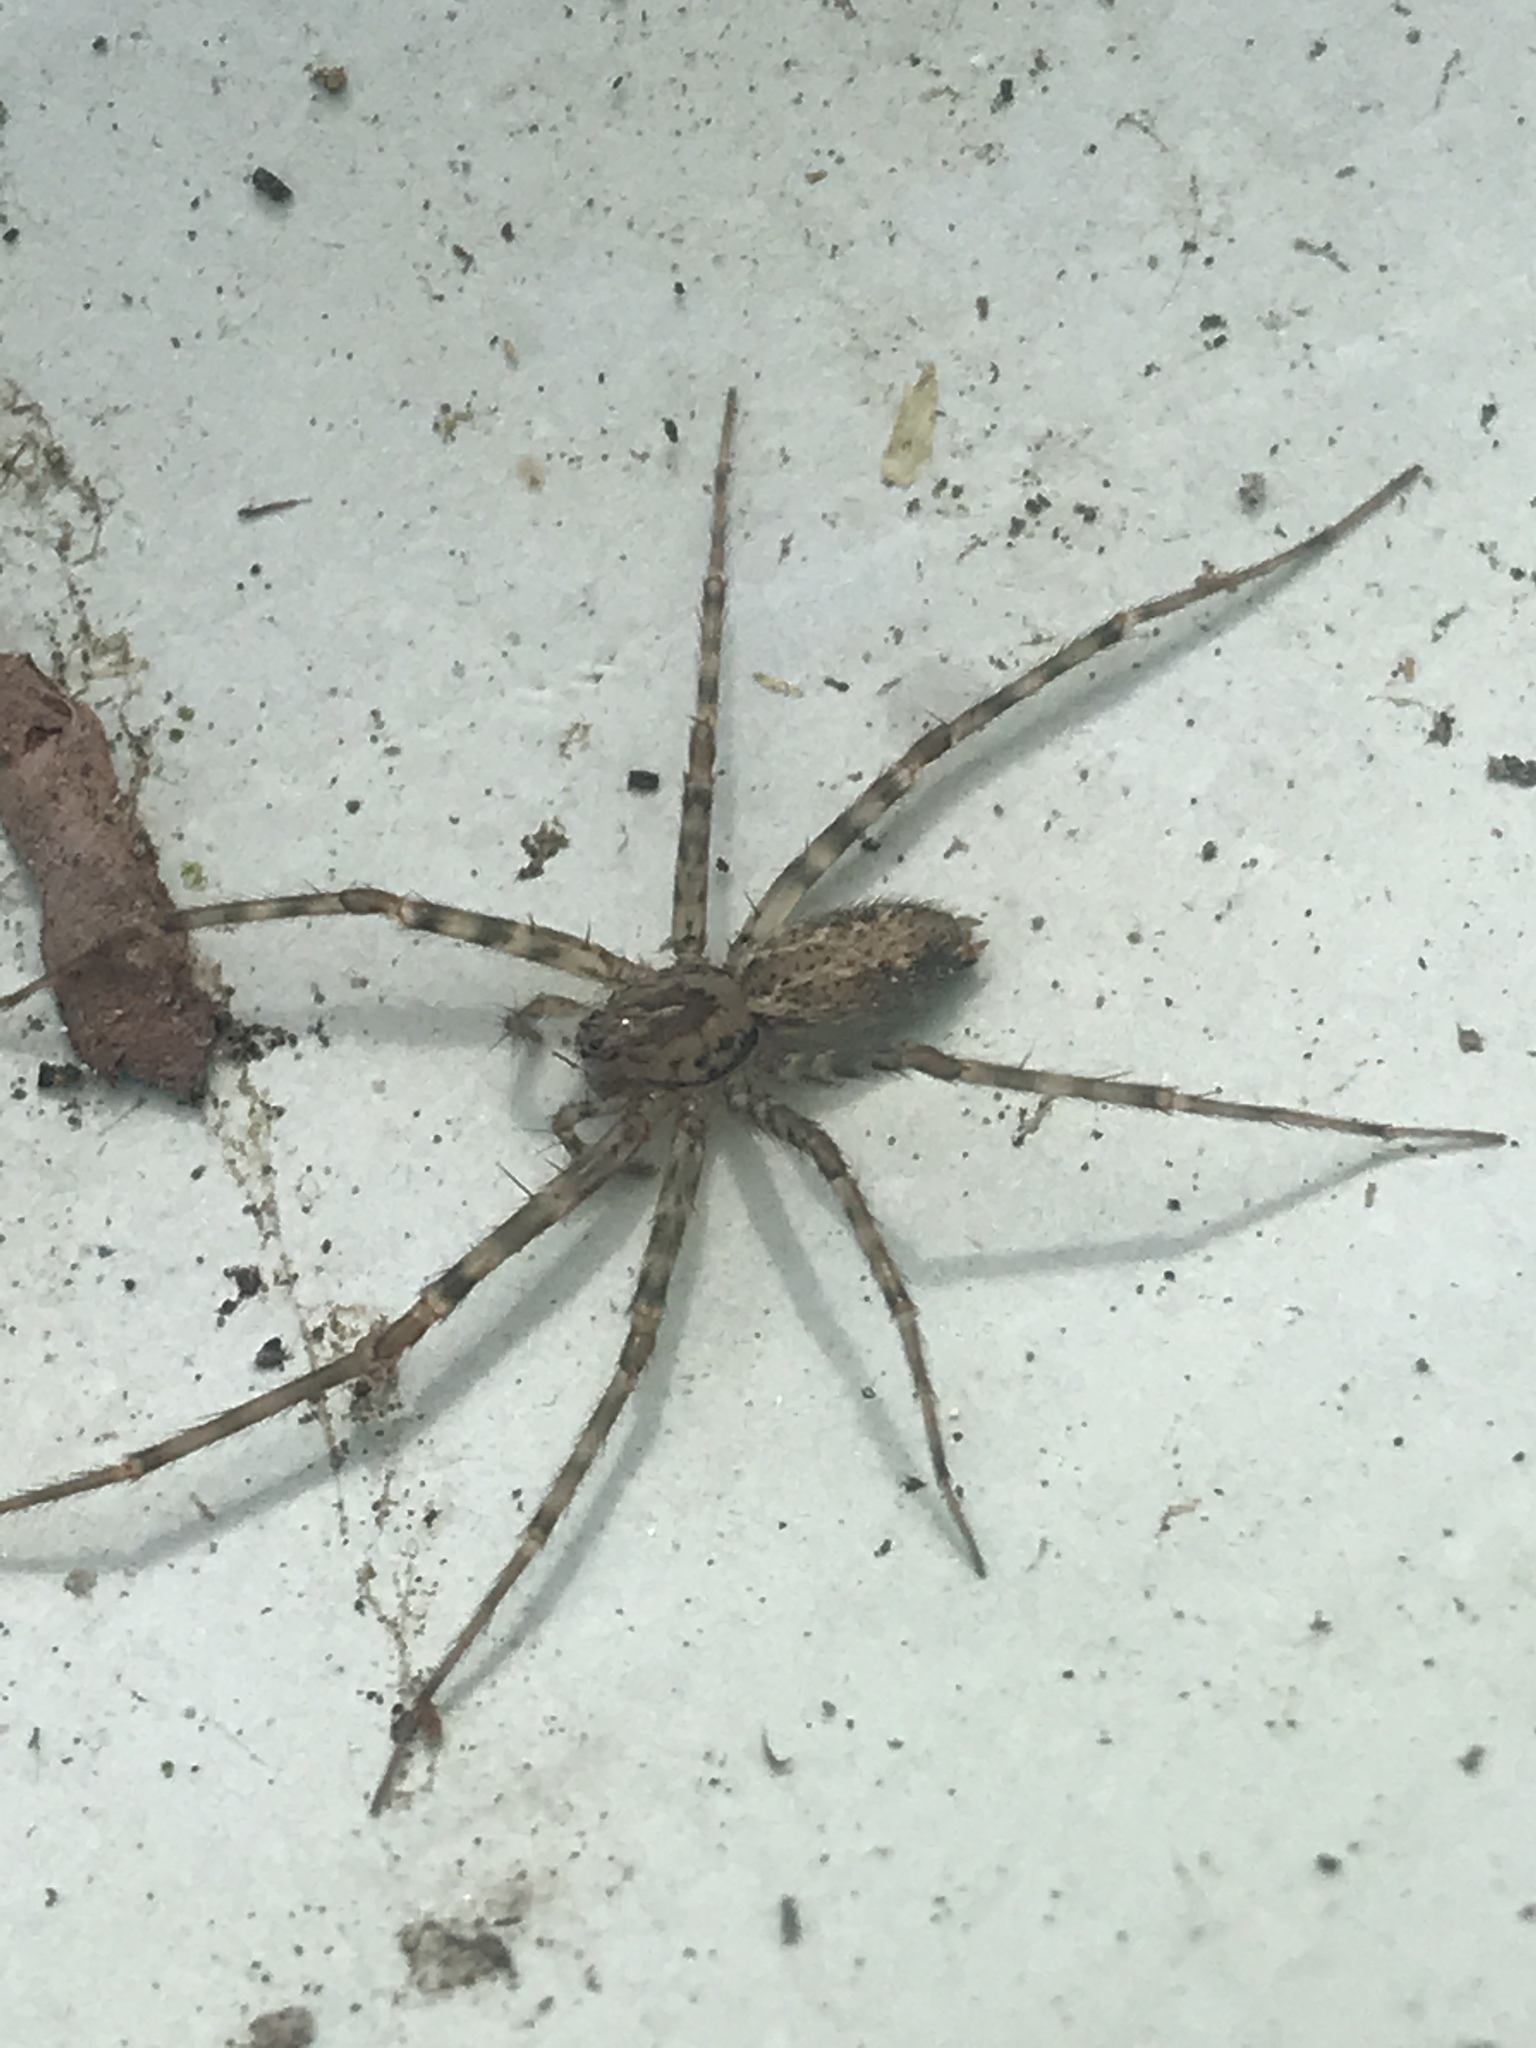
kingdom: Animalia
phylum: Arthropoda
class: Arachnida
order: Araneae
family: Stiphidiidae
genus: Stiphidion
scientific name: Stiphidion facetum
